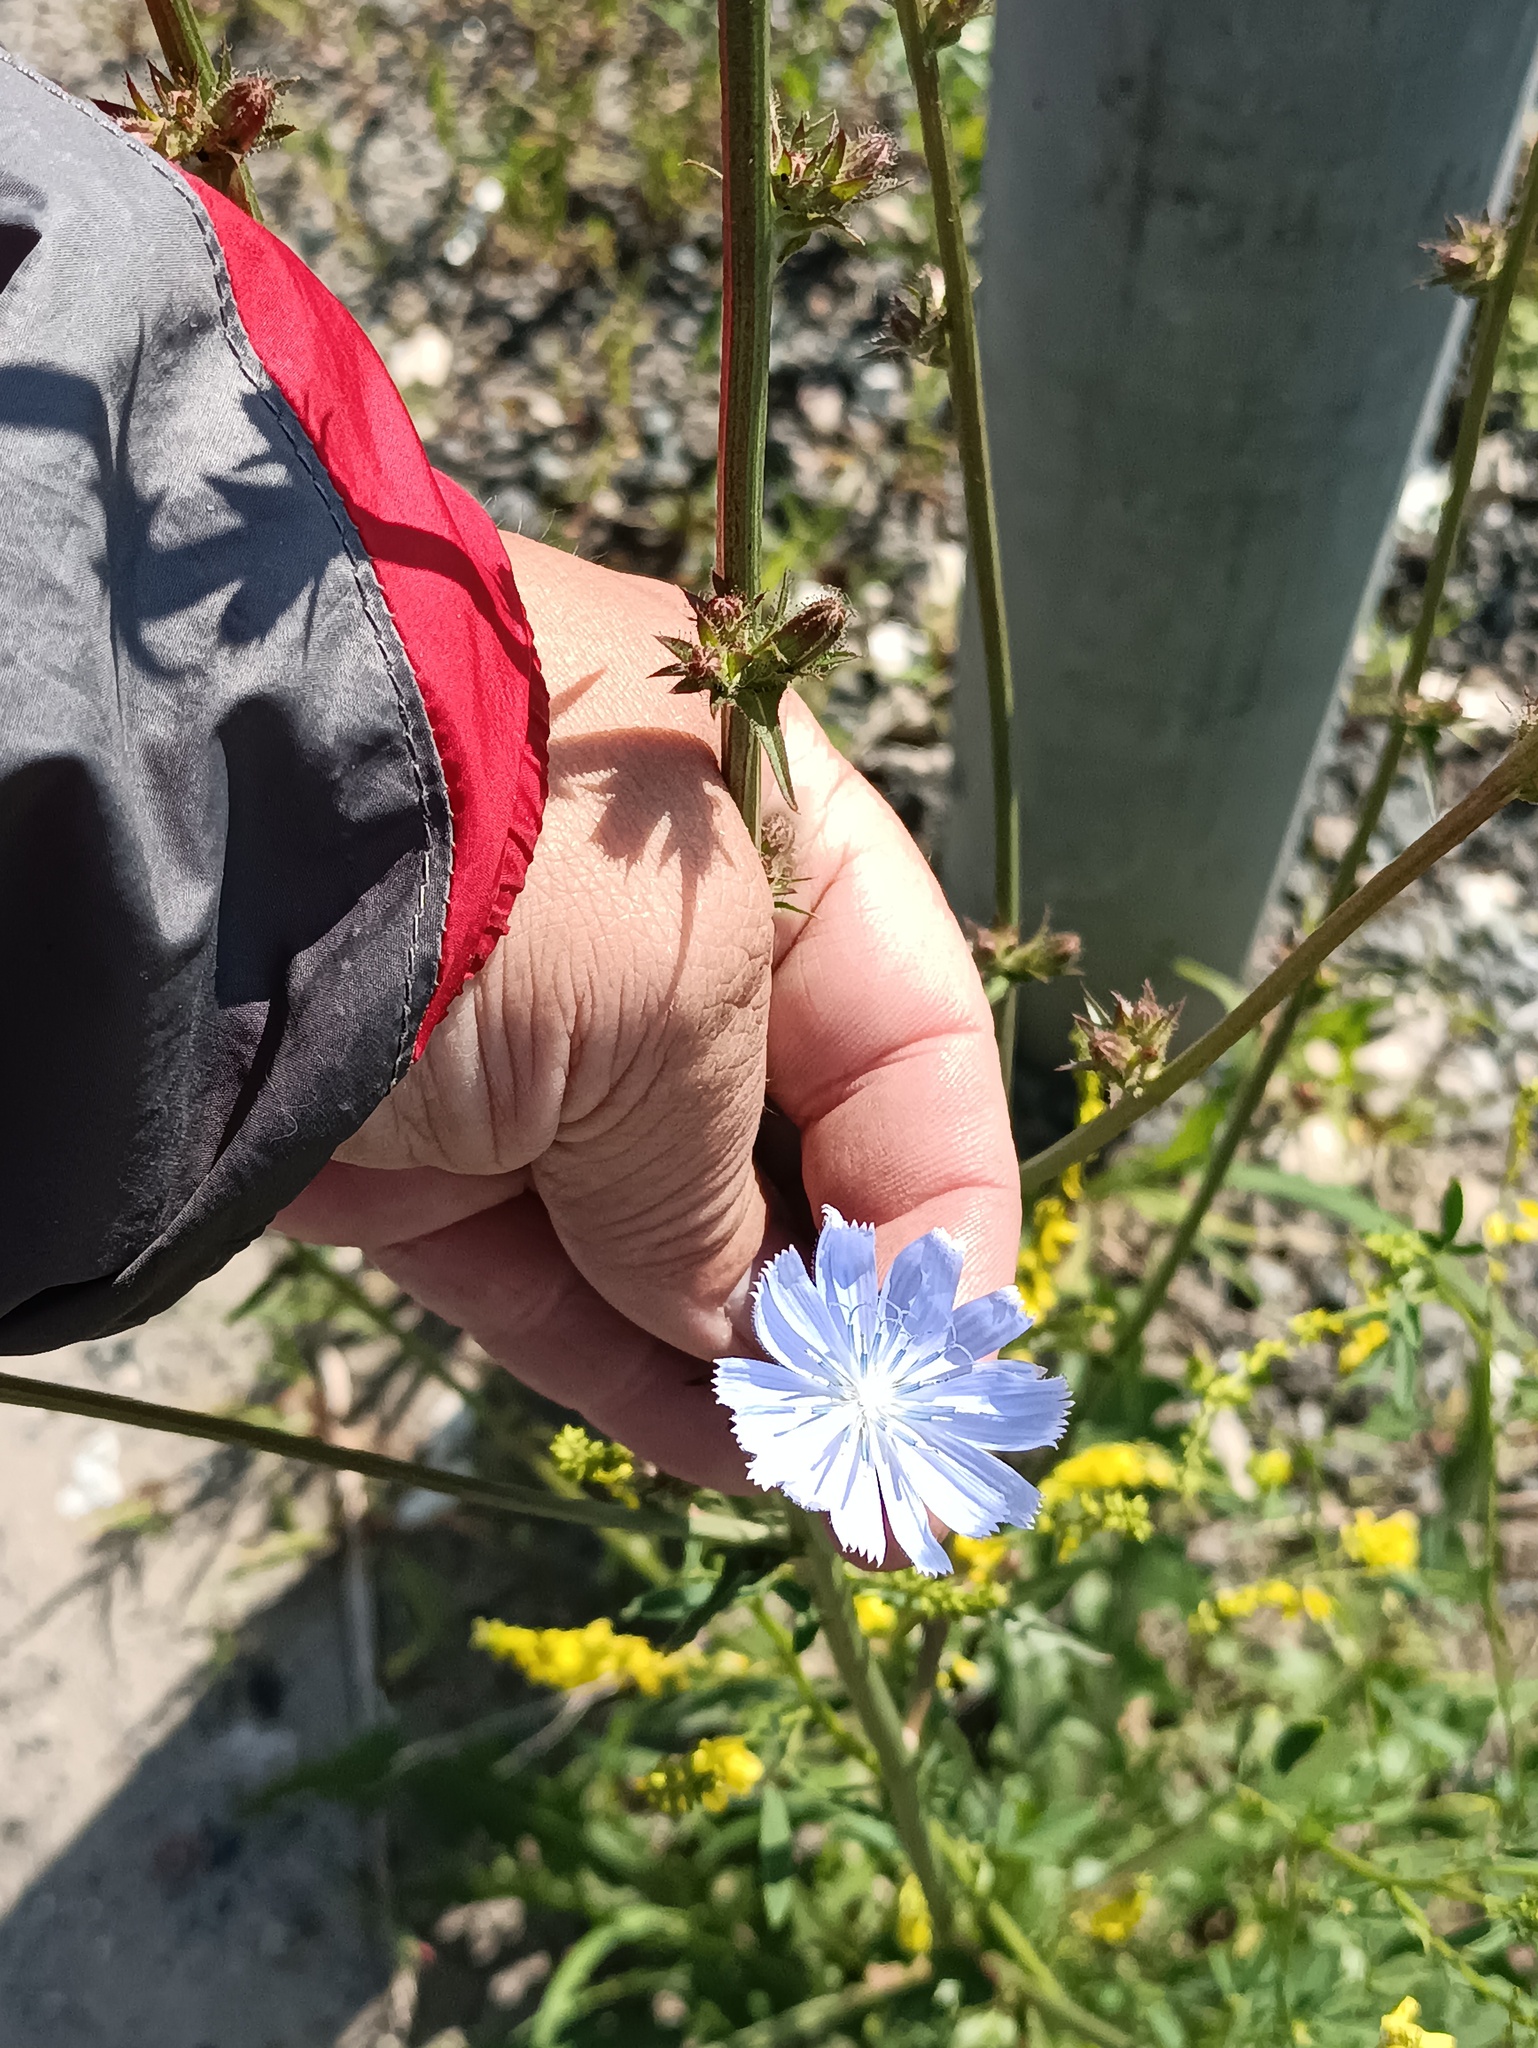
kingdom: Plantae
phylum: Tracheophyta
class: Magnoliopsida
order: Asterales
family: Asteraceae
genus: Cichorium
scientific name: Cichorium intybus
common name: Chicory
